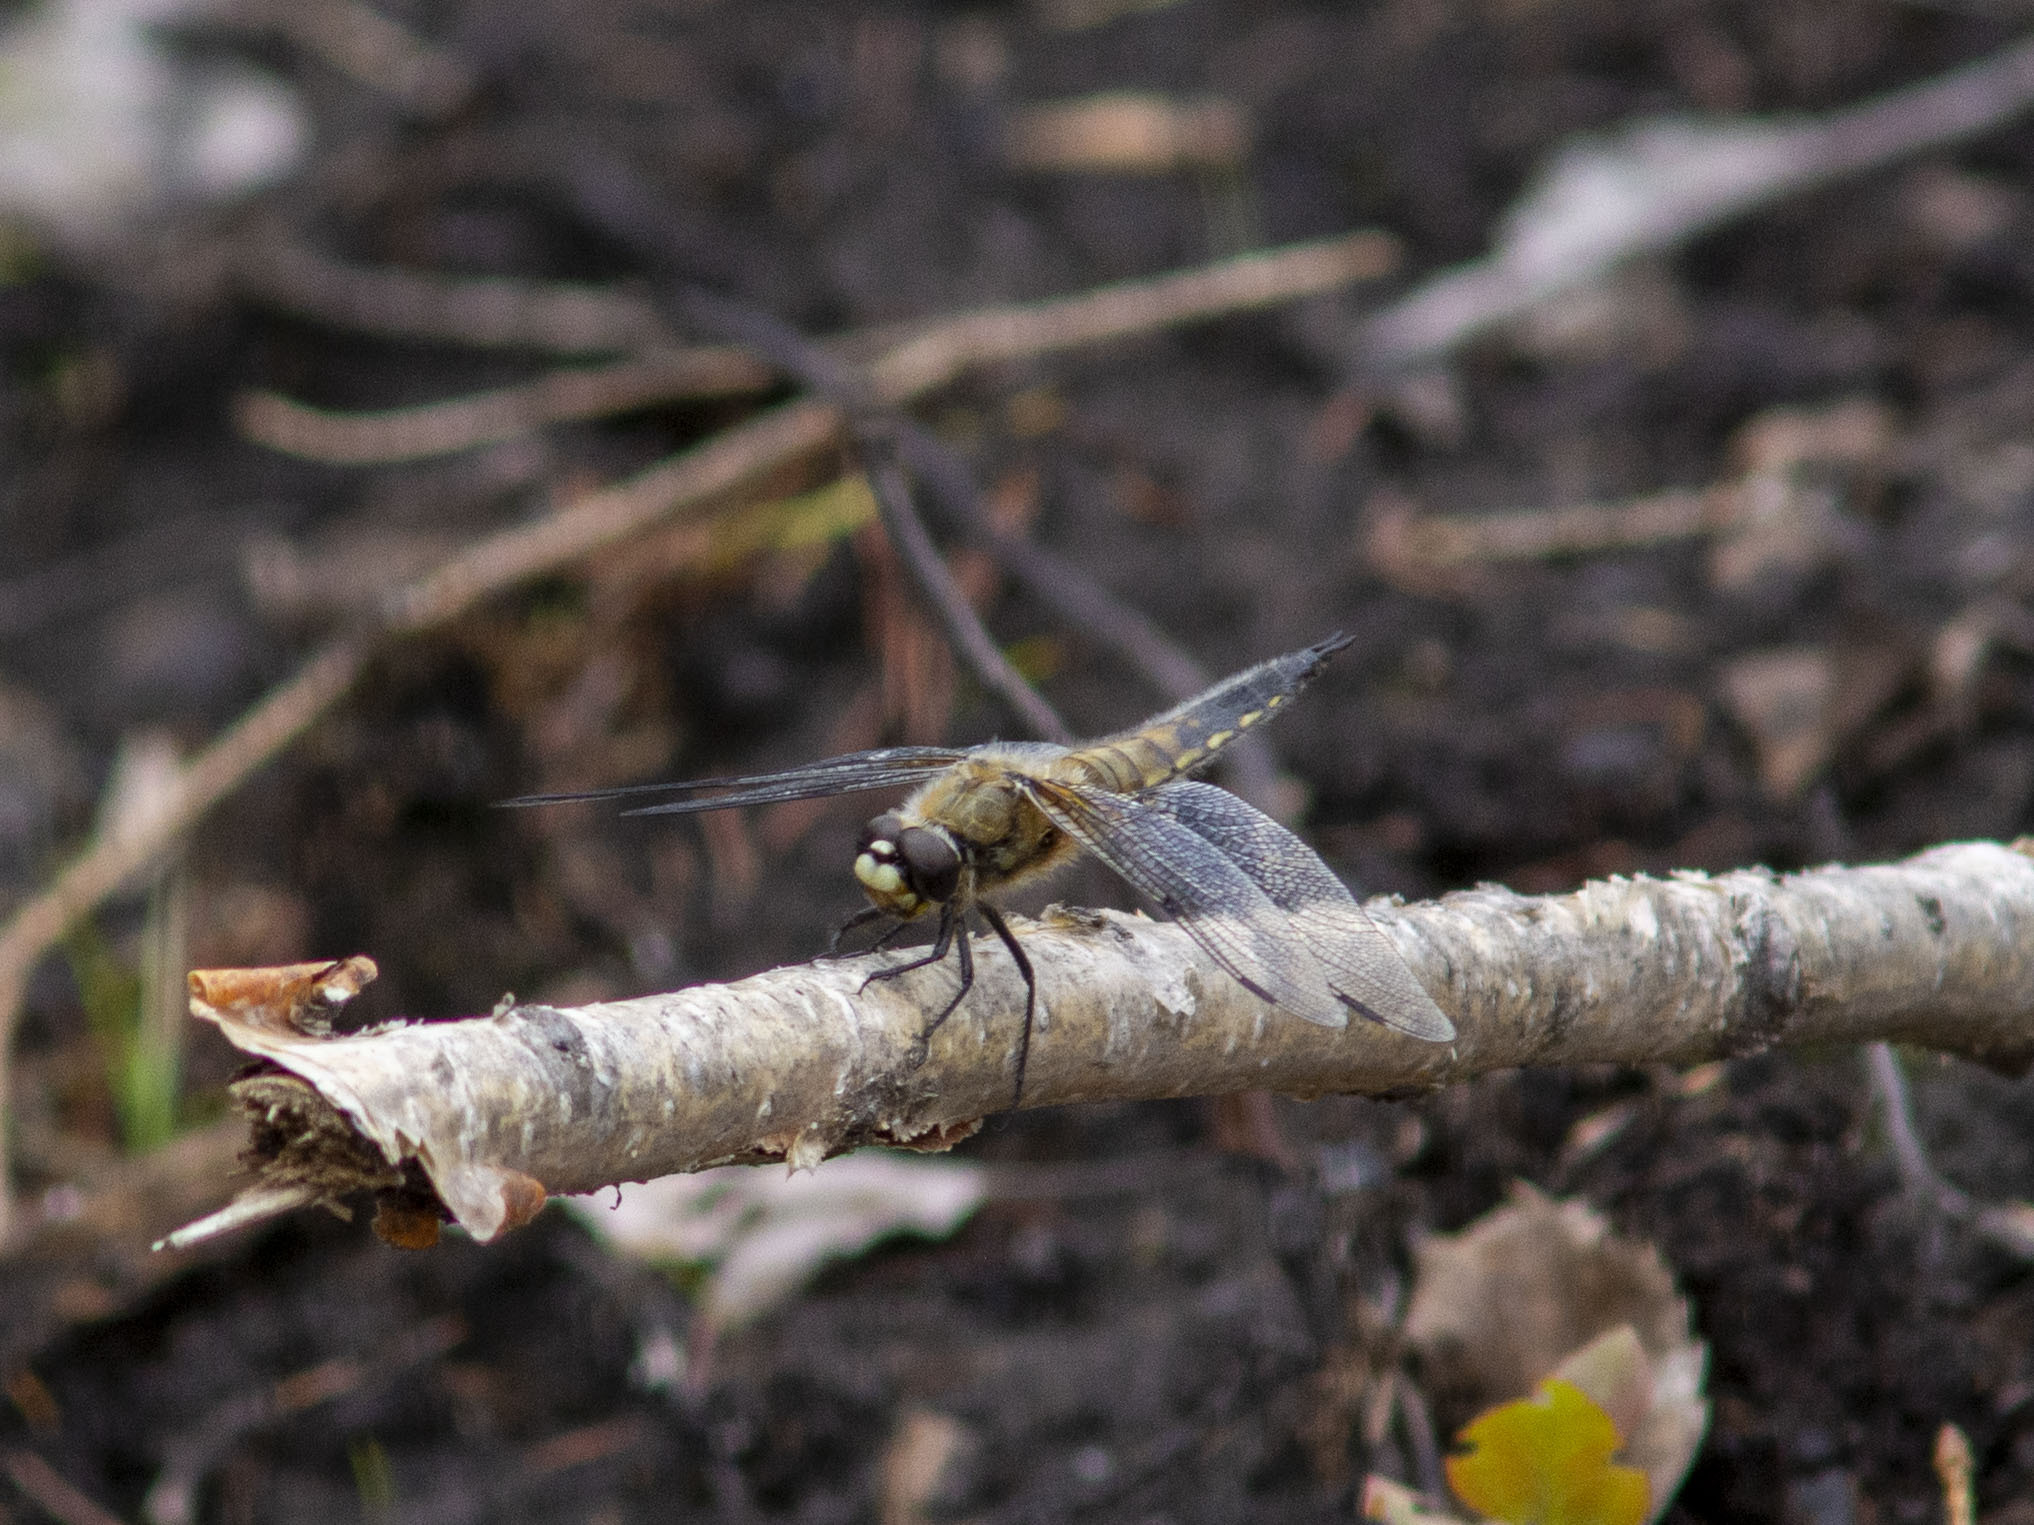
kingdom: Animalia
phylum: Arthropoda
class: Insecta
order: Odonata
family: Libellulidae
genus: Libellula
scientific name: Libellula quadrimaculata
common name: Four-spotted chaser
